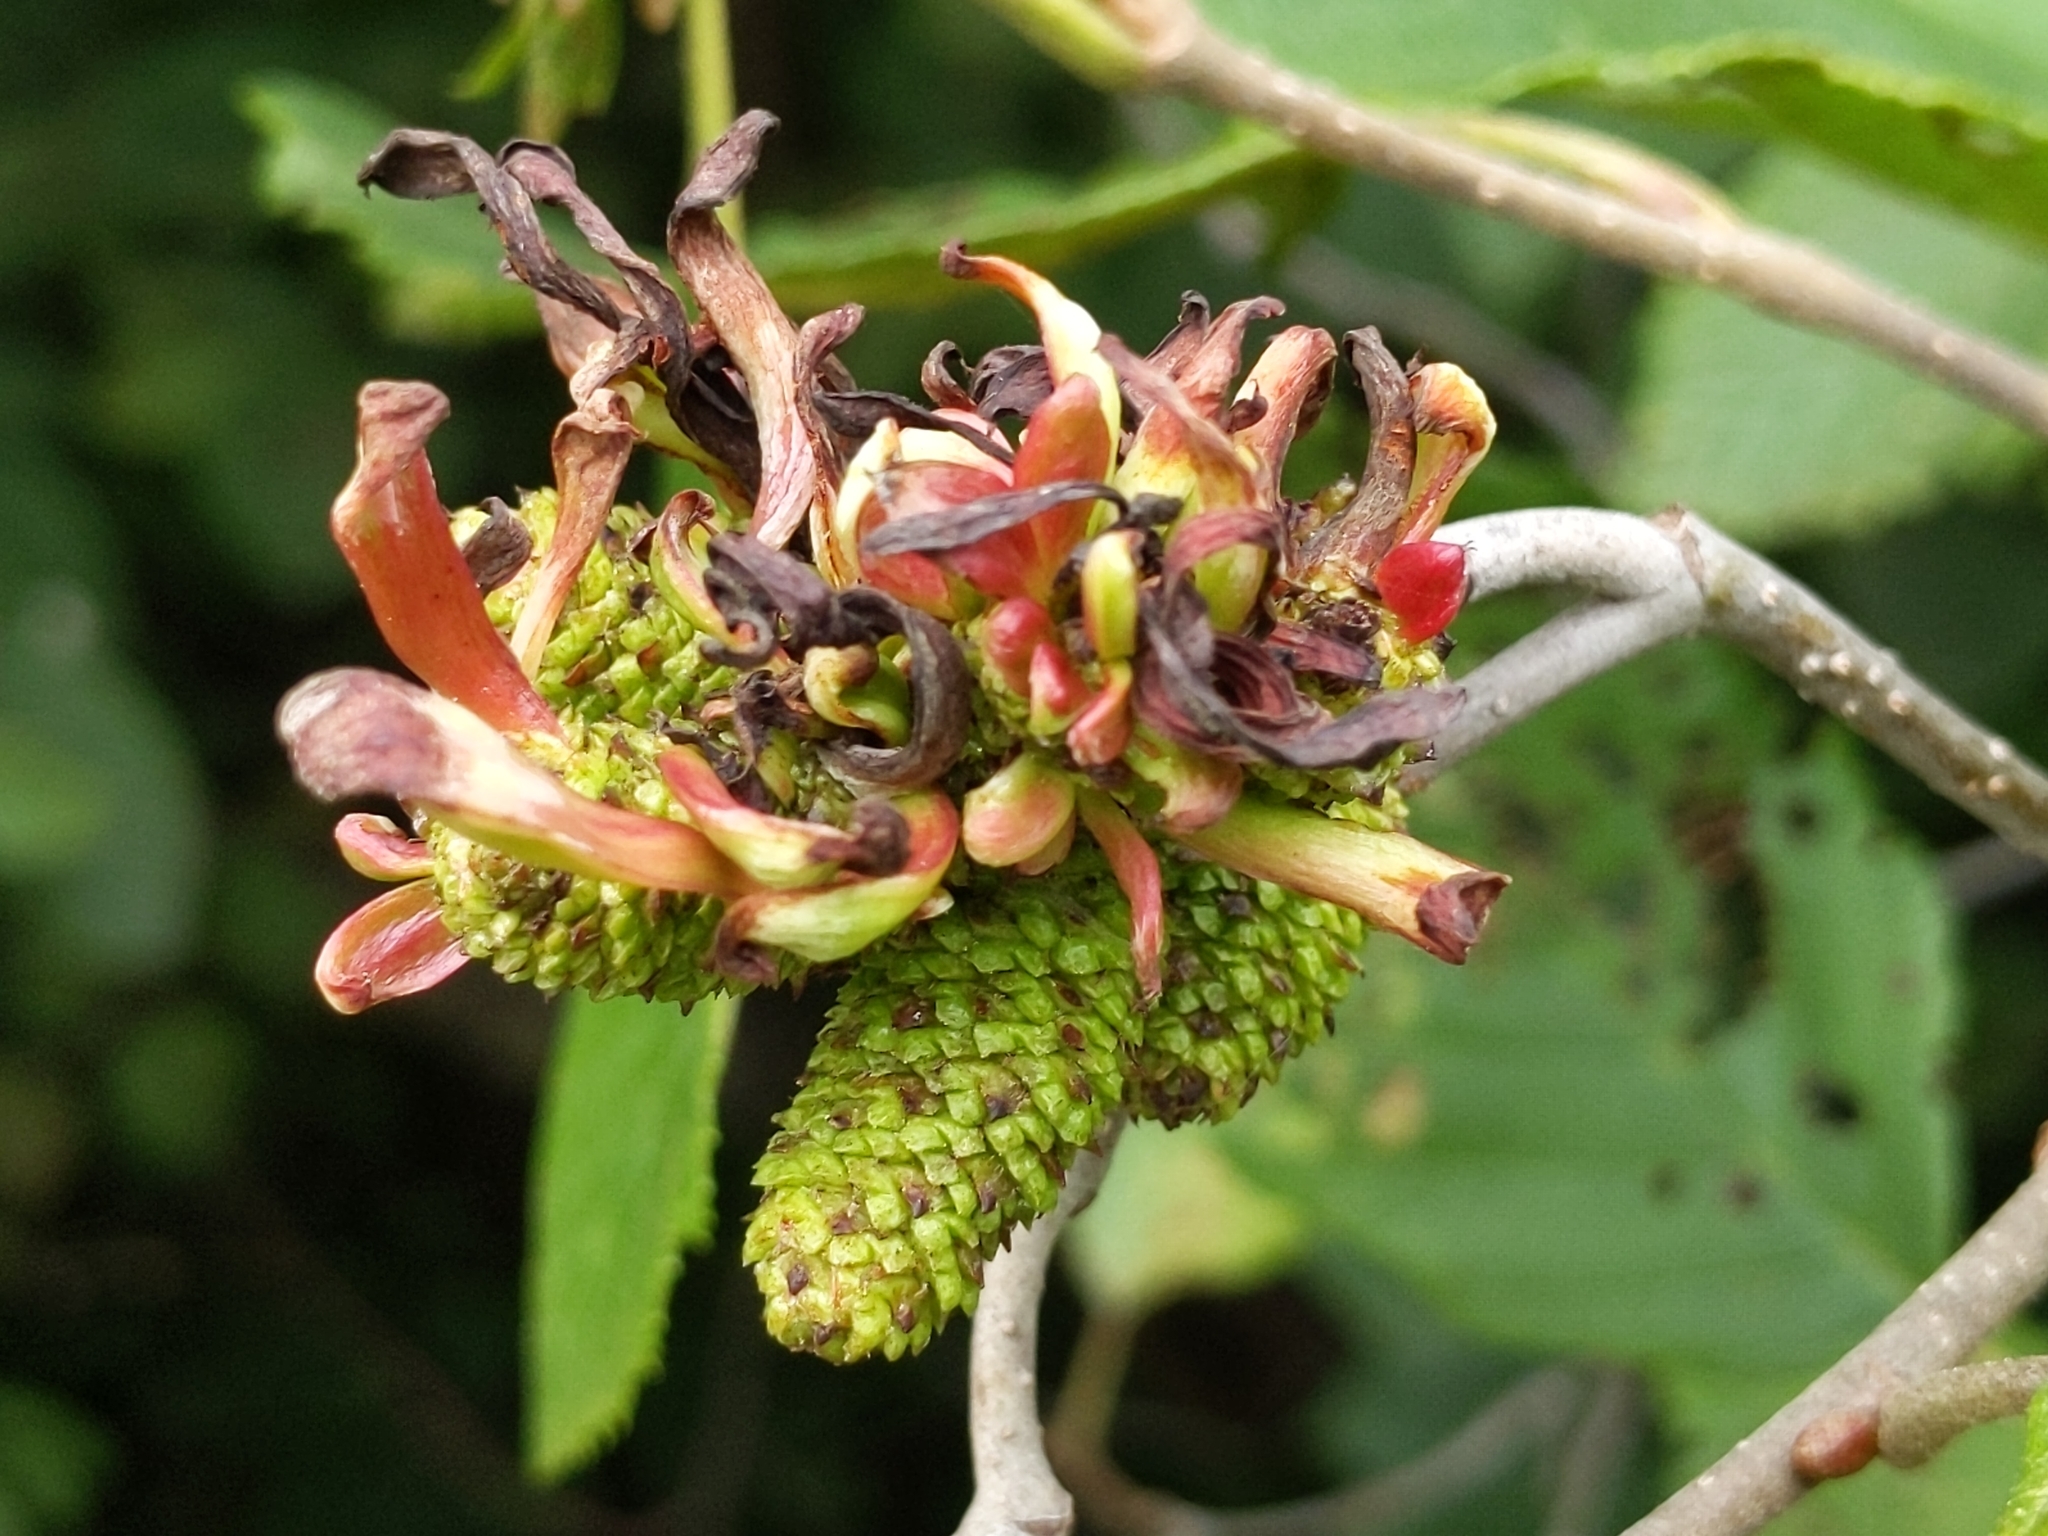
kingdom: Fungi
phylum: Ascomycota
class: Taphrinomycetes
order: Taphrinales
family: Taphrinaceae
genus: Taphrina
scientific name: Taphrina robinsoniana
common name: Eastern american alder tongue gall fungus
